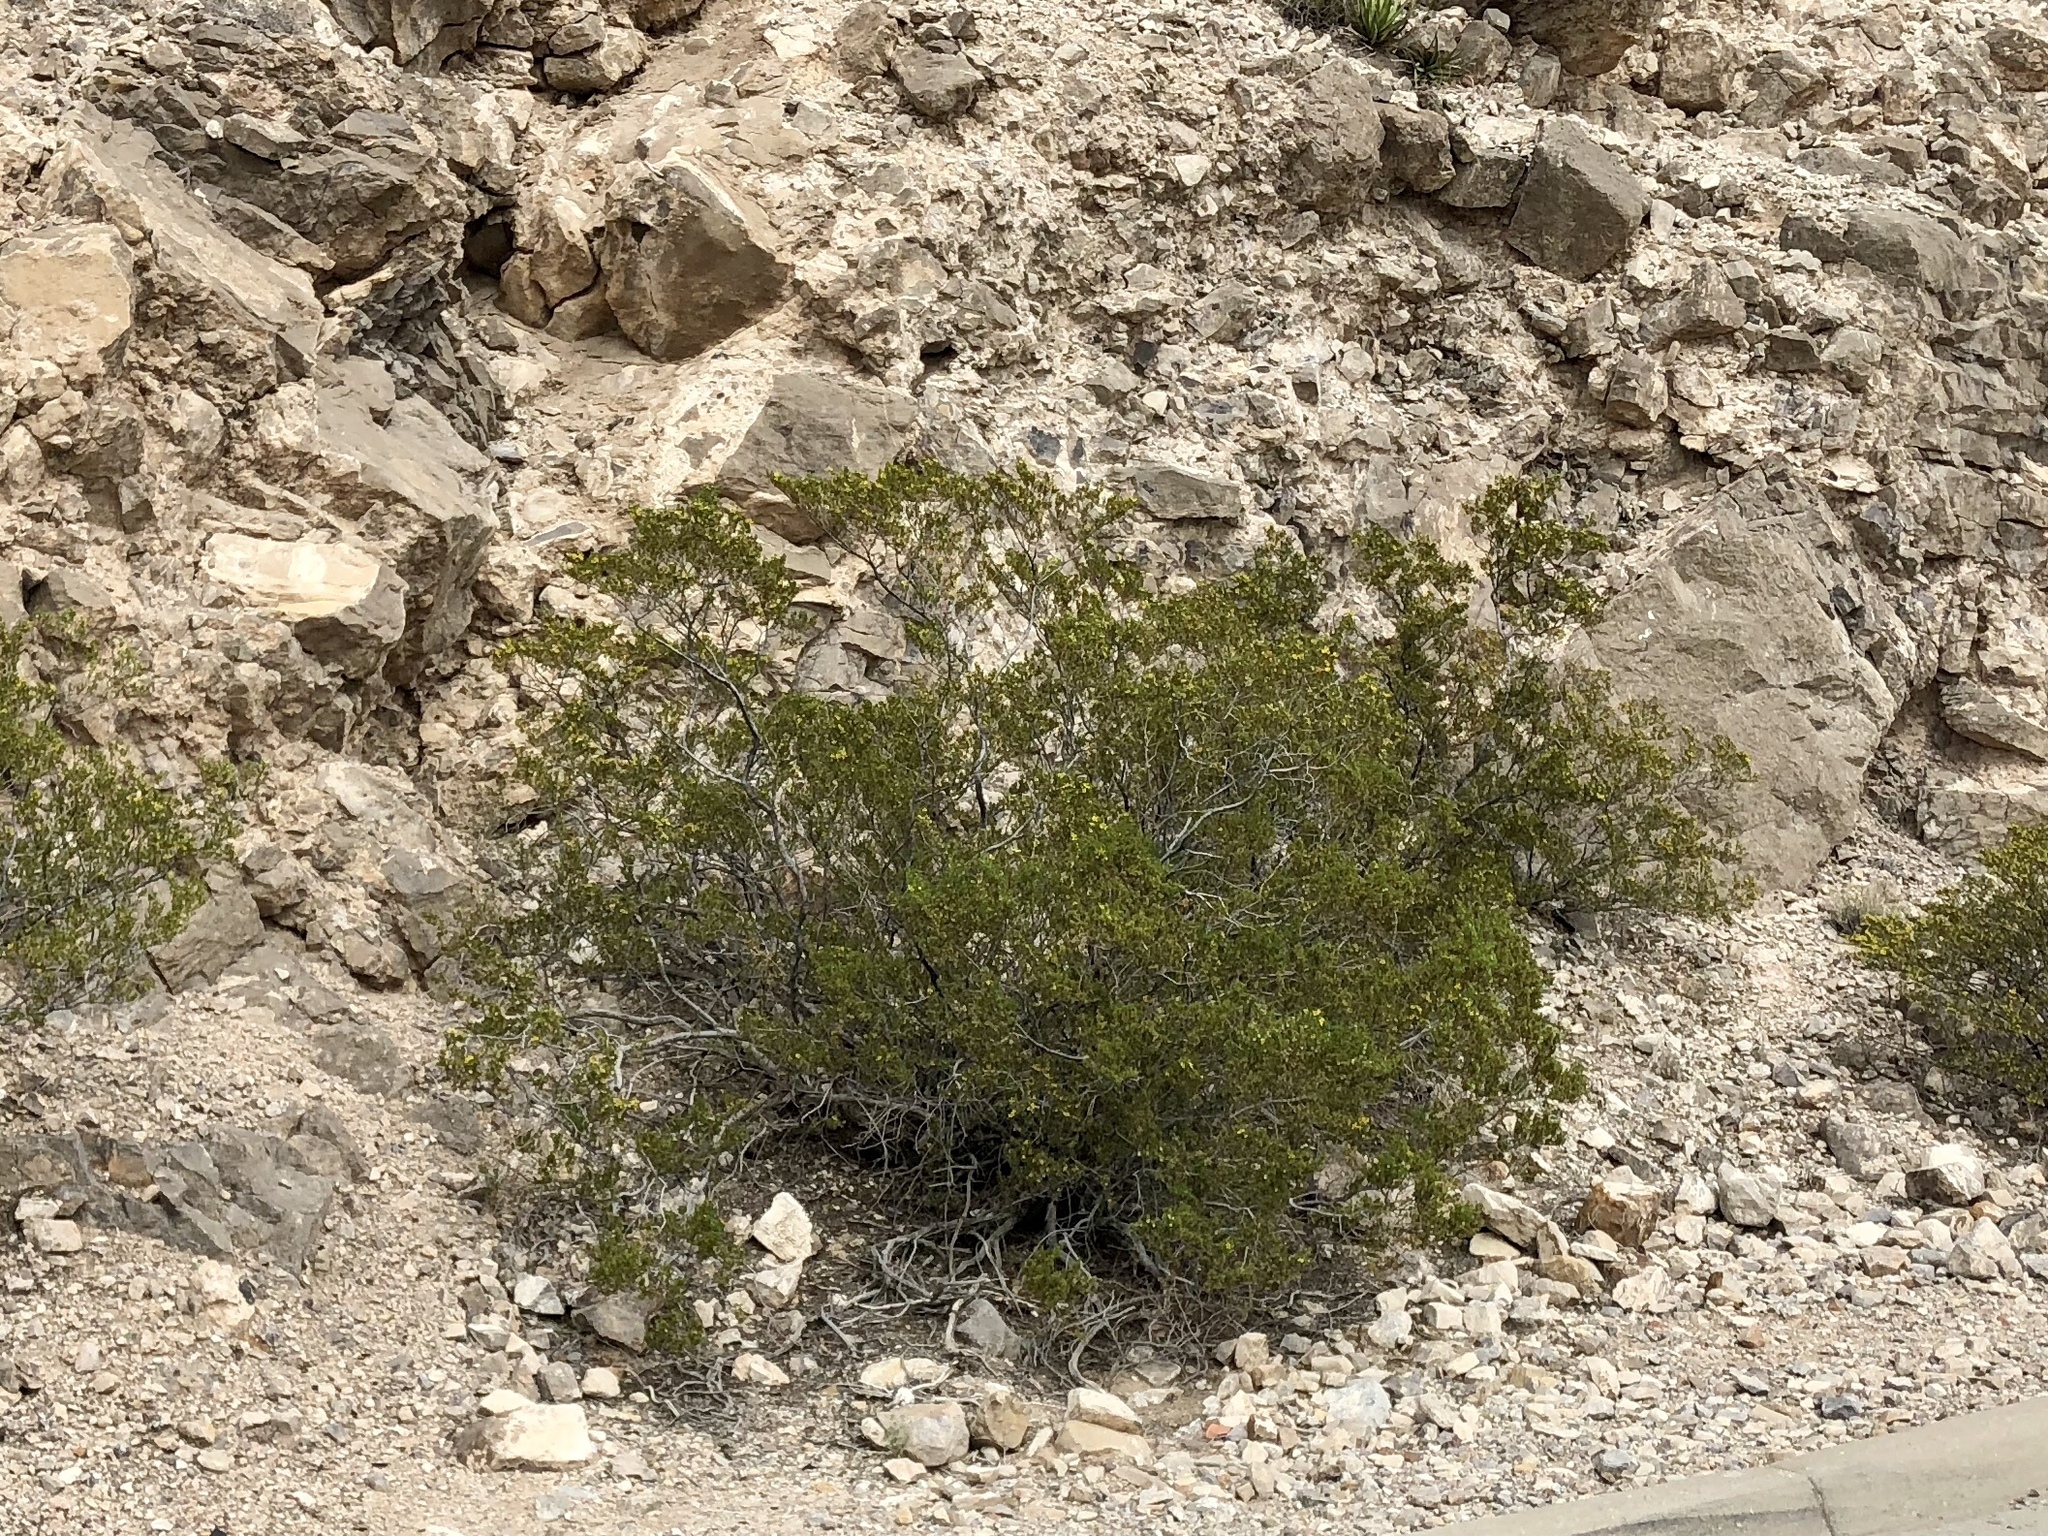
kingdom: Plantae
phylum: Tracheophyta
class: Magnoliopsida
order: Zygophyllales
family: Zygophyllaceae
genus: Larrea
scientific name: Larrea tridentata
